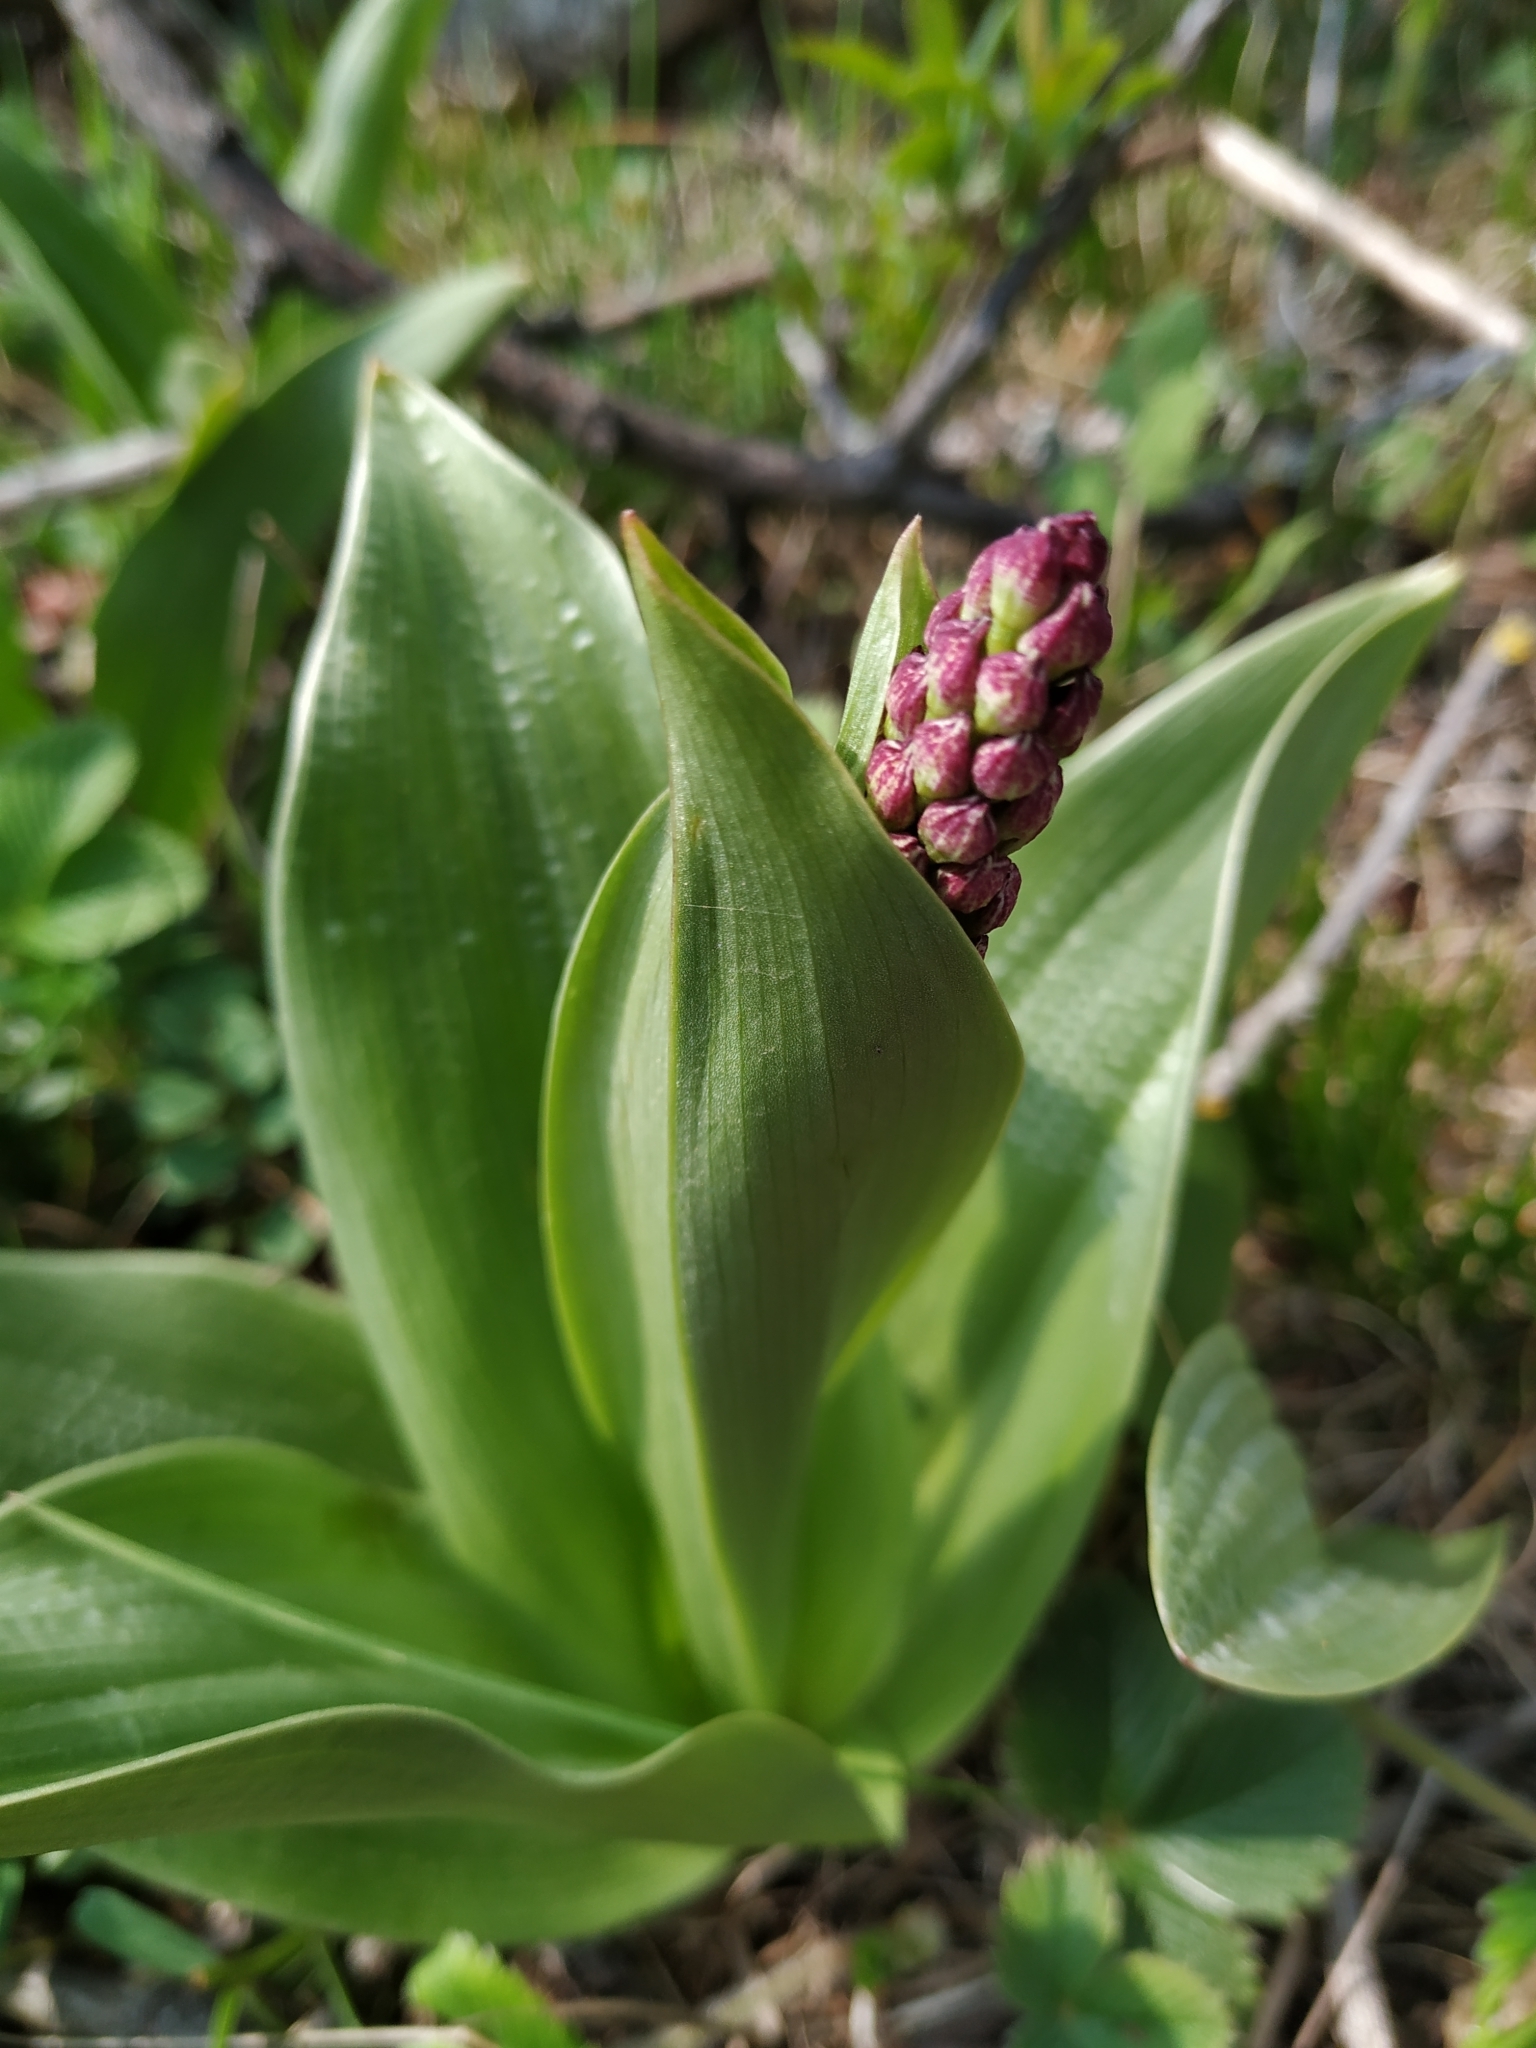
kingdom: Plantae
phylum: Tracheophyta
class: Liliopsida
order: Asparagales
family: Orchidaceae
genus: Orchis
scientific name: Orchis purpurea
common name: Lady orchid
